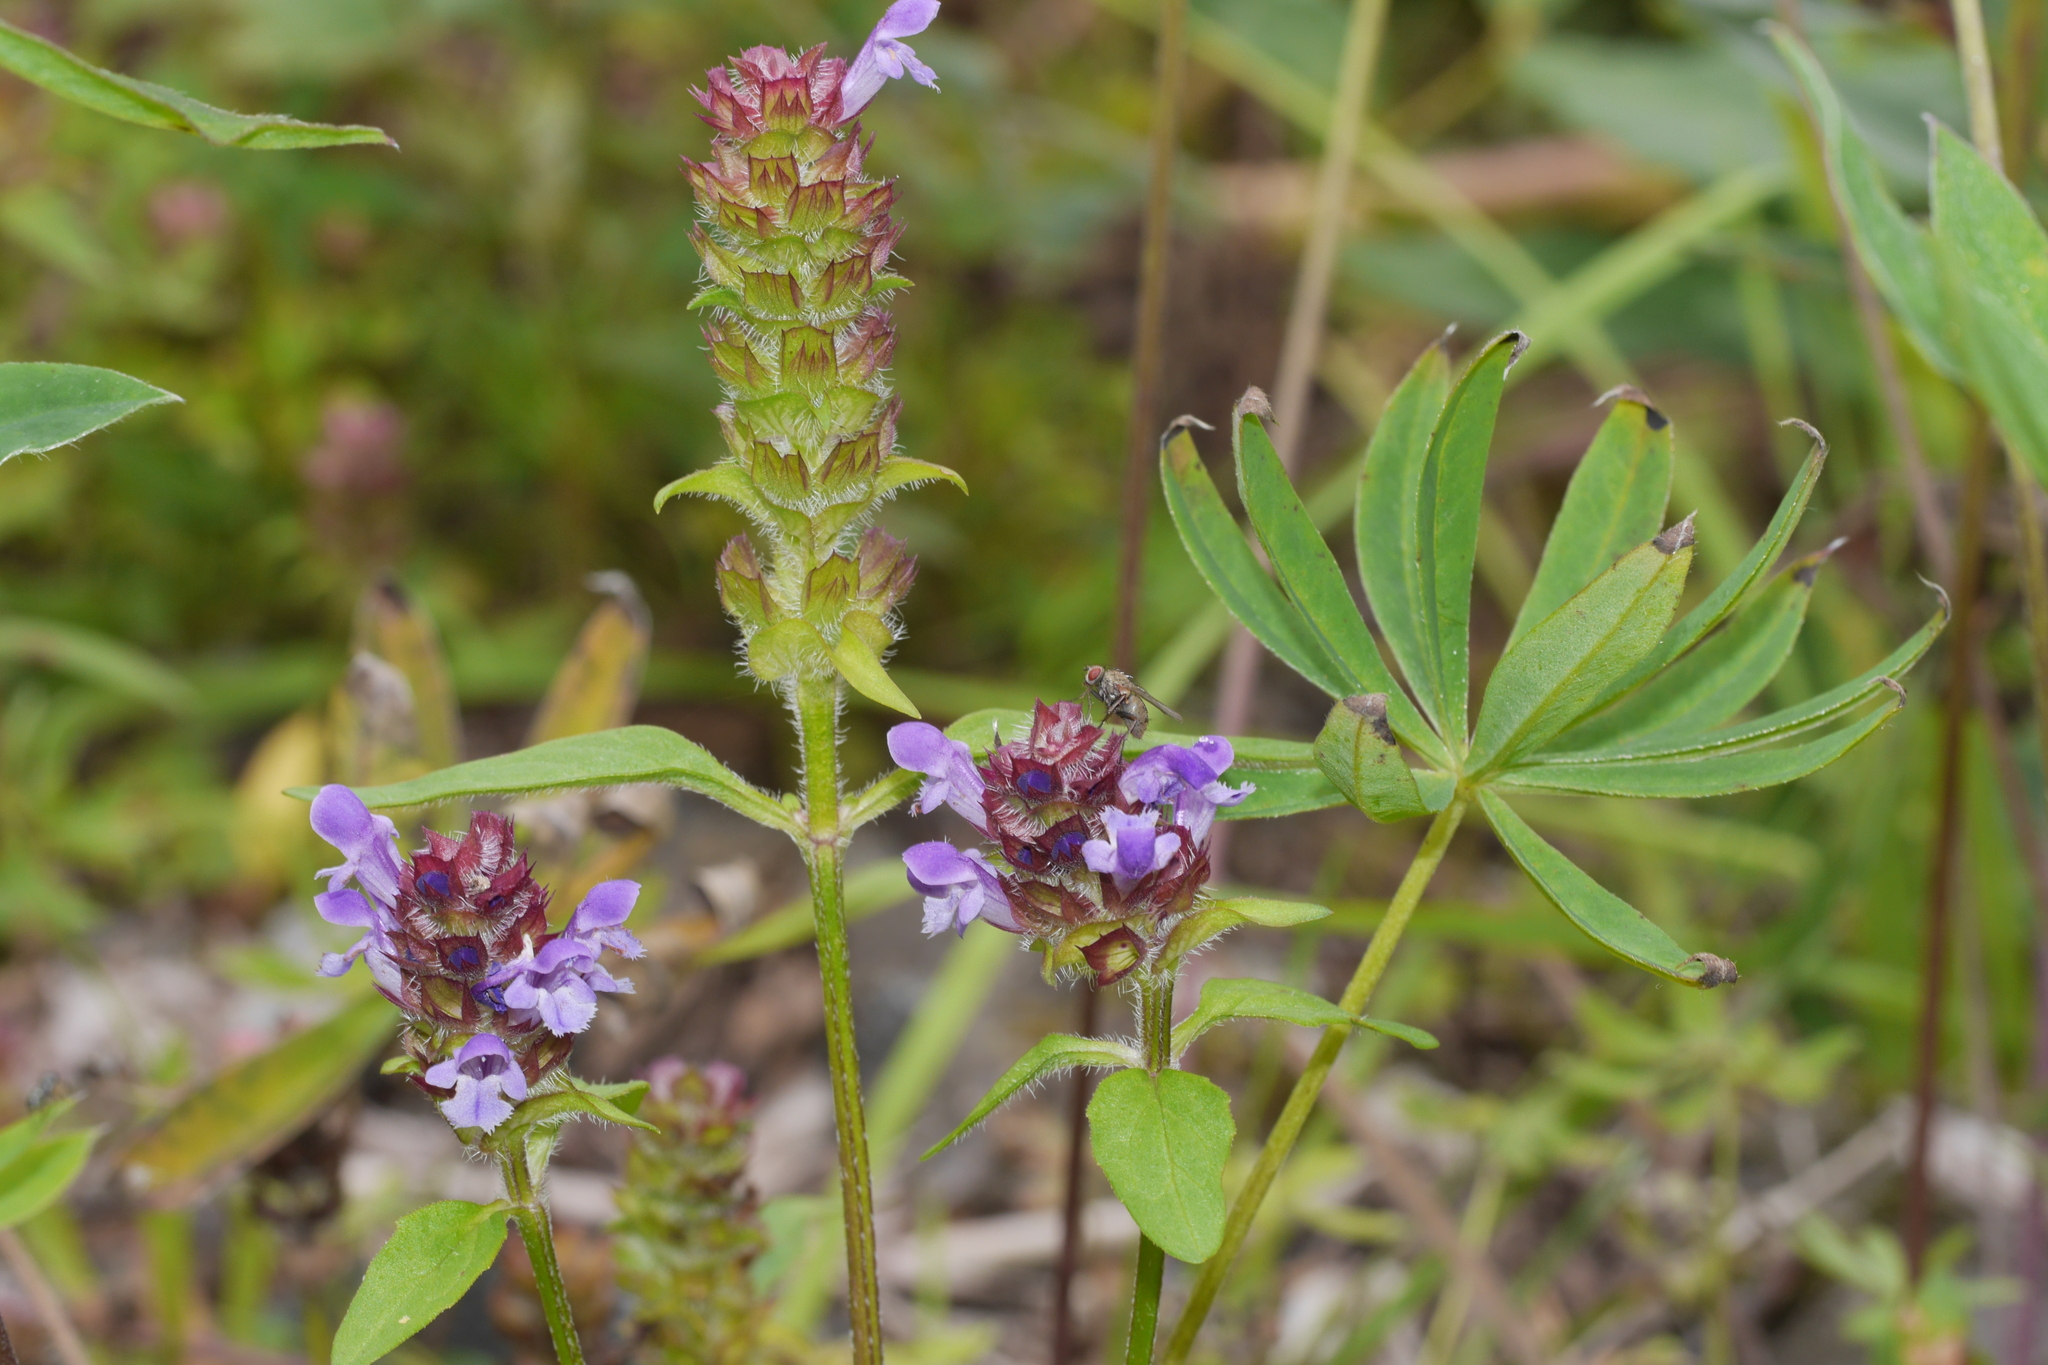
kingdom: Plantae
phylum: Tracheophyta
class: Magnoliopsida
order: Lamiales
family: Lamiaceae
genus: Prunella
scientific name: Prunella vulgaris
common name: Heal-all
